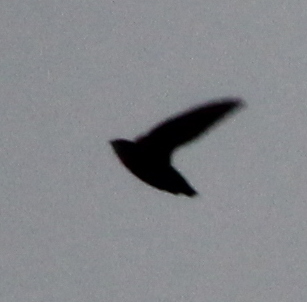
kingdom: Animalia
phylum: Chordata
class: Aves
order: Apodiformes
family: Apodidae
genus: Chaetura
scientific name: Chaetura pelagica
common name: Chimney swift
